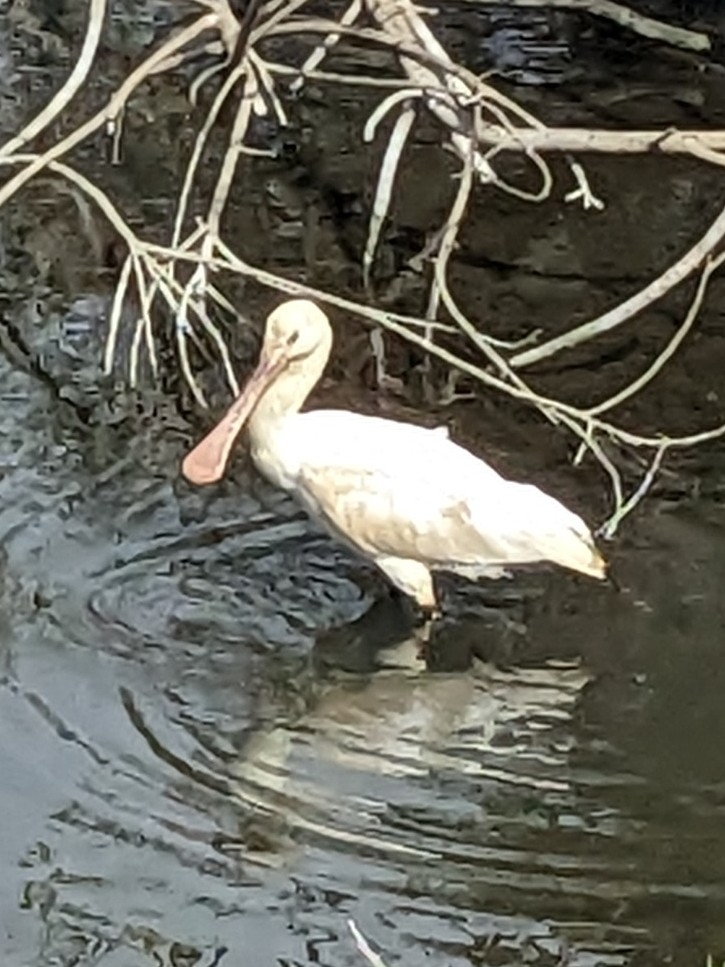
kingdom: Animalia
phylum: Chordata
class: Aves
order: Pelecaniformes
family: Threskiornithidae
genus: Platalea
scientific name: Platalea leucorodia
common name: Eurasian spoonbill
